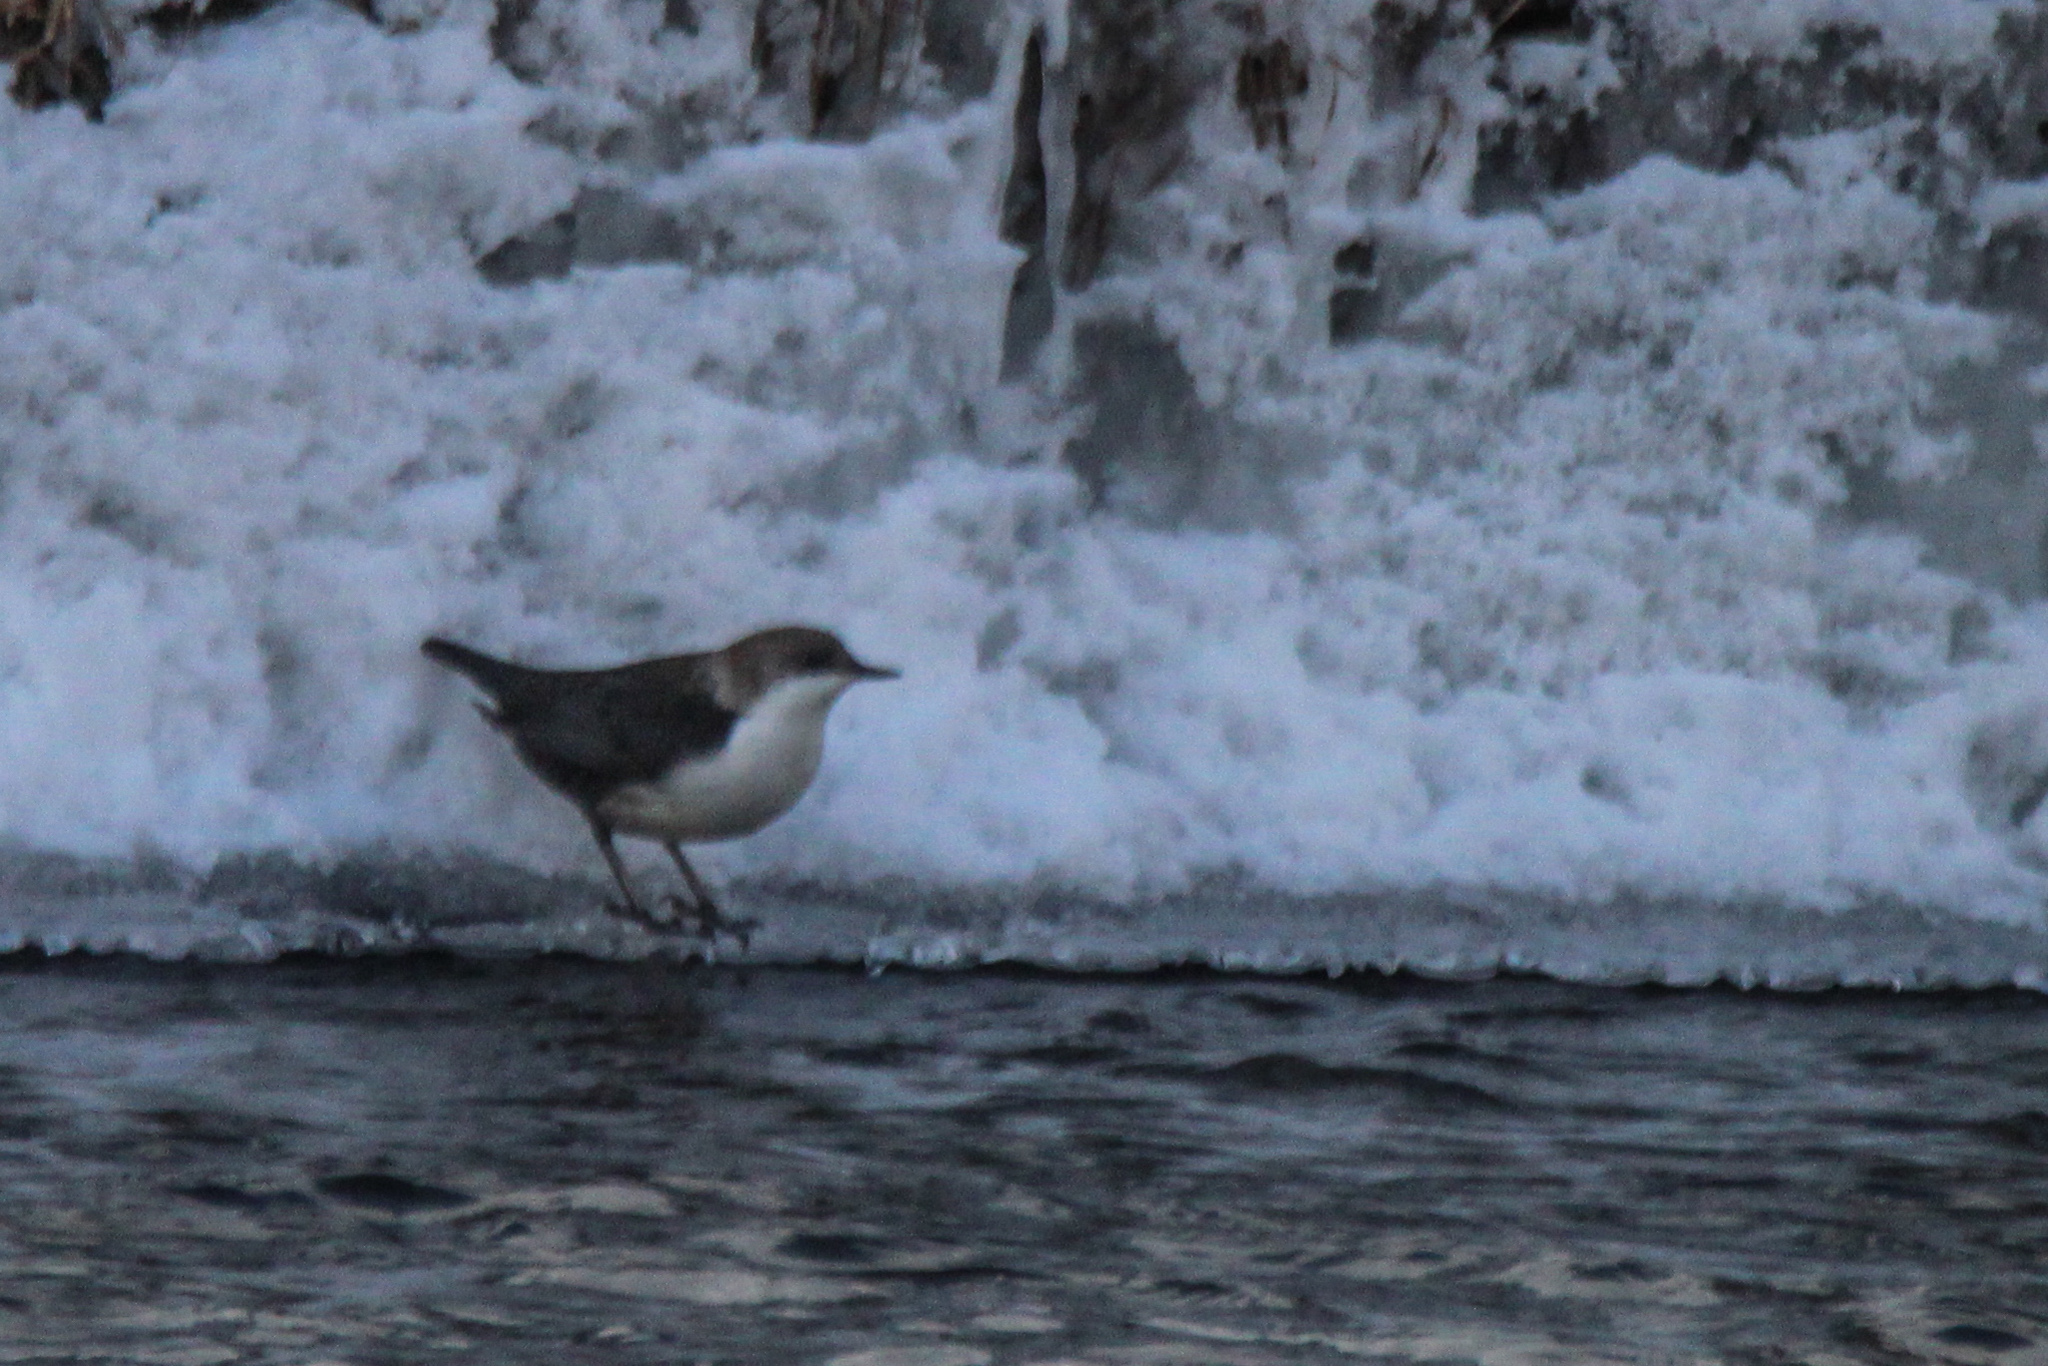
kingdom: Animalia
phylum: Chordata
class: Aves
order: Passeriformes
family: Cinclidae
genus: Cinclus
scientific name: Cinclus cinclus
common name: White-throated dipper
